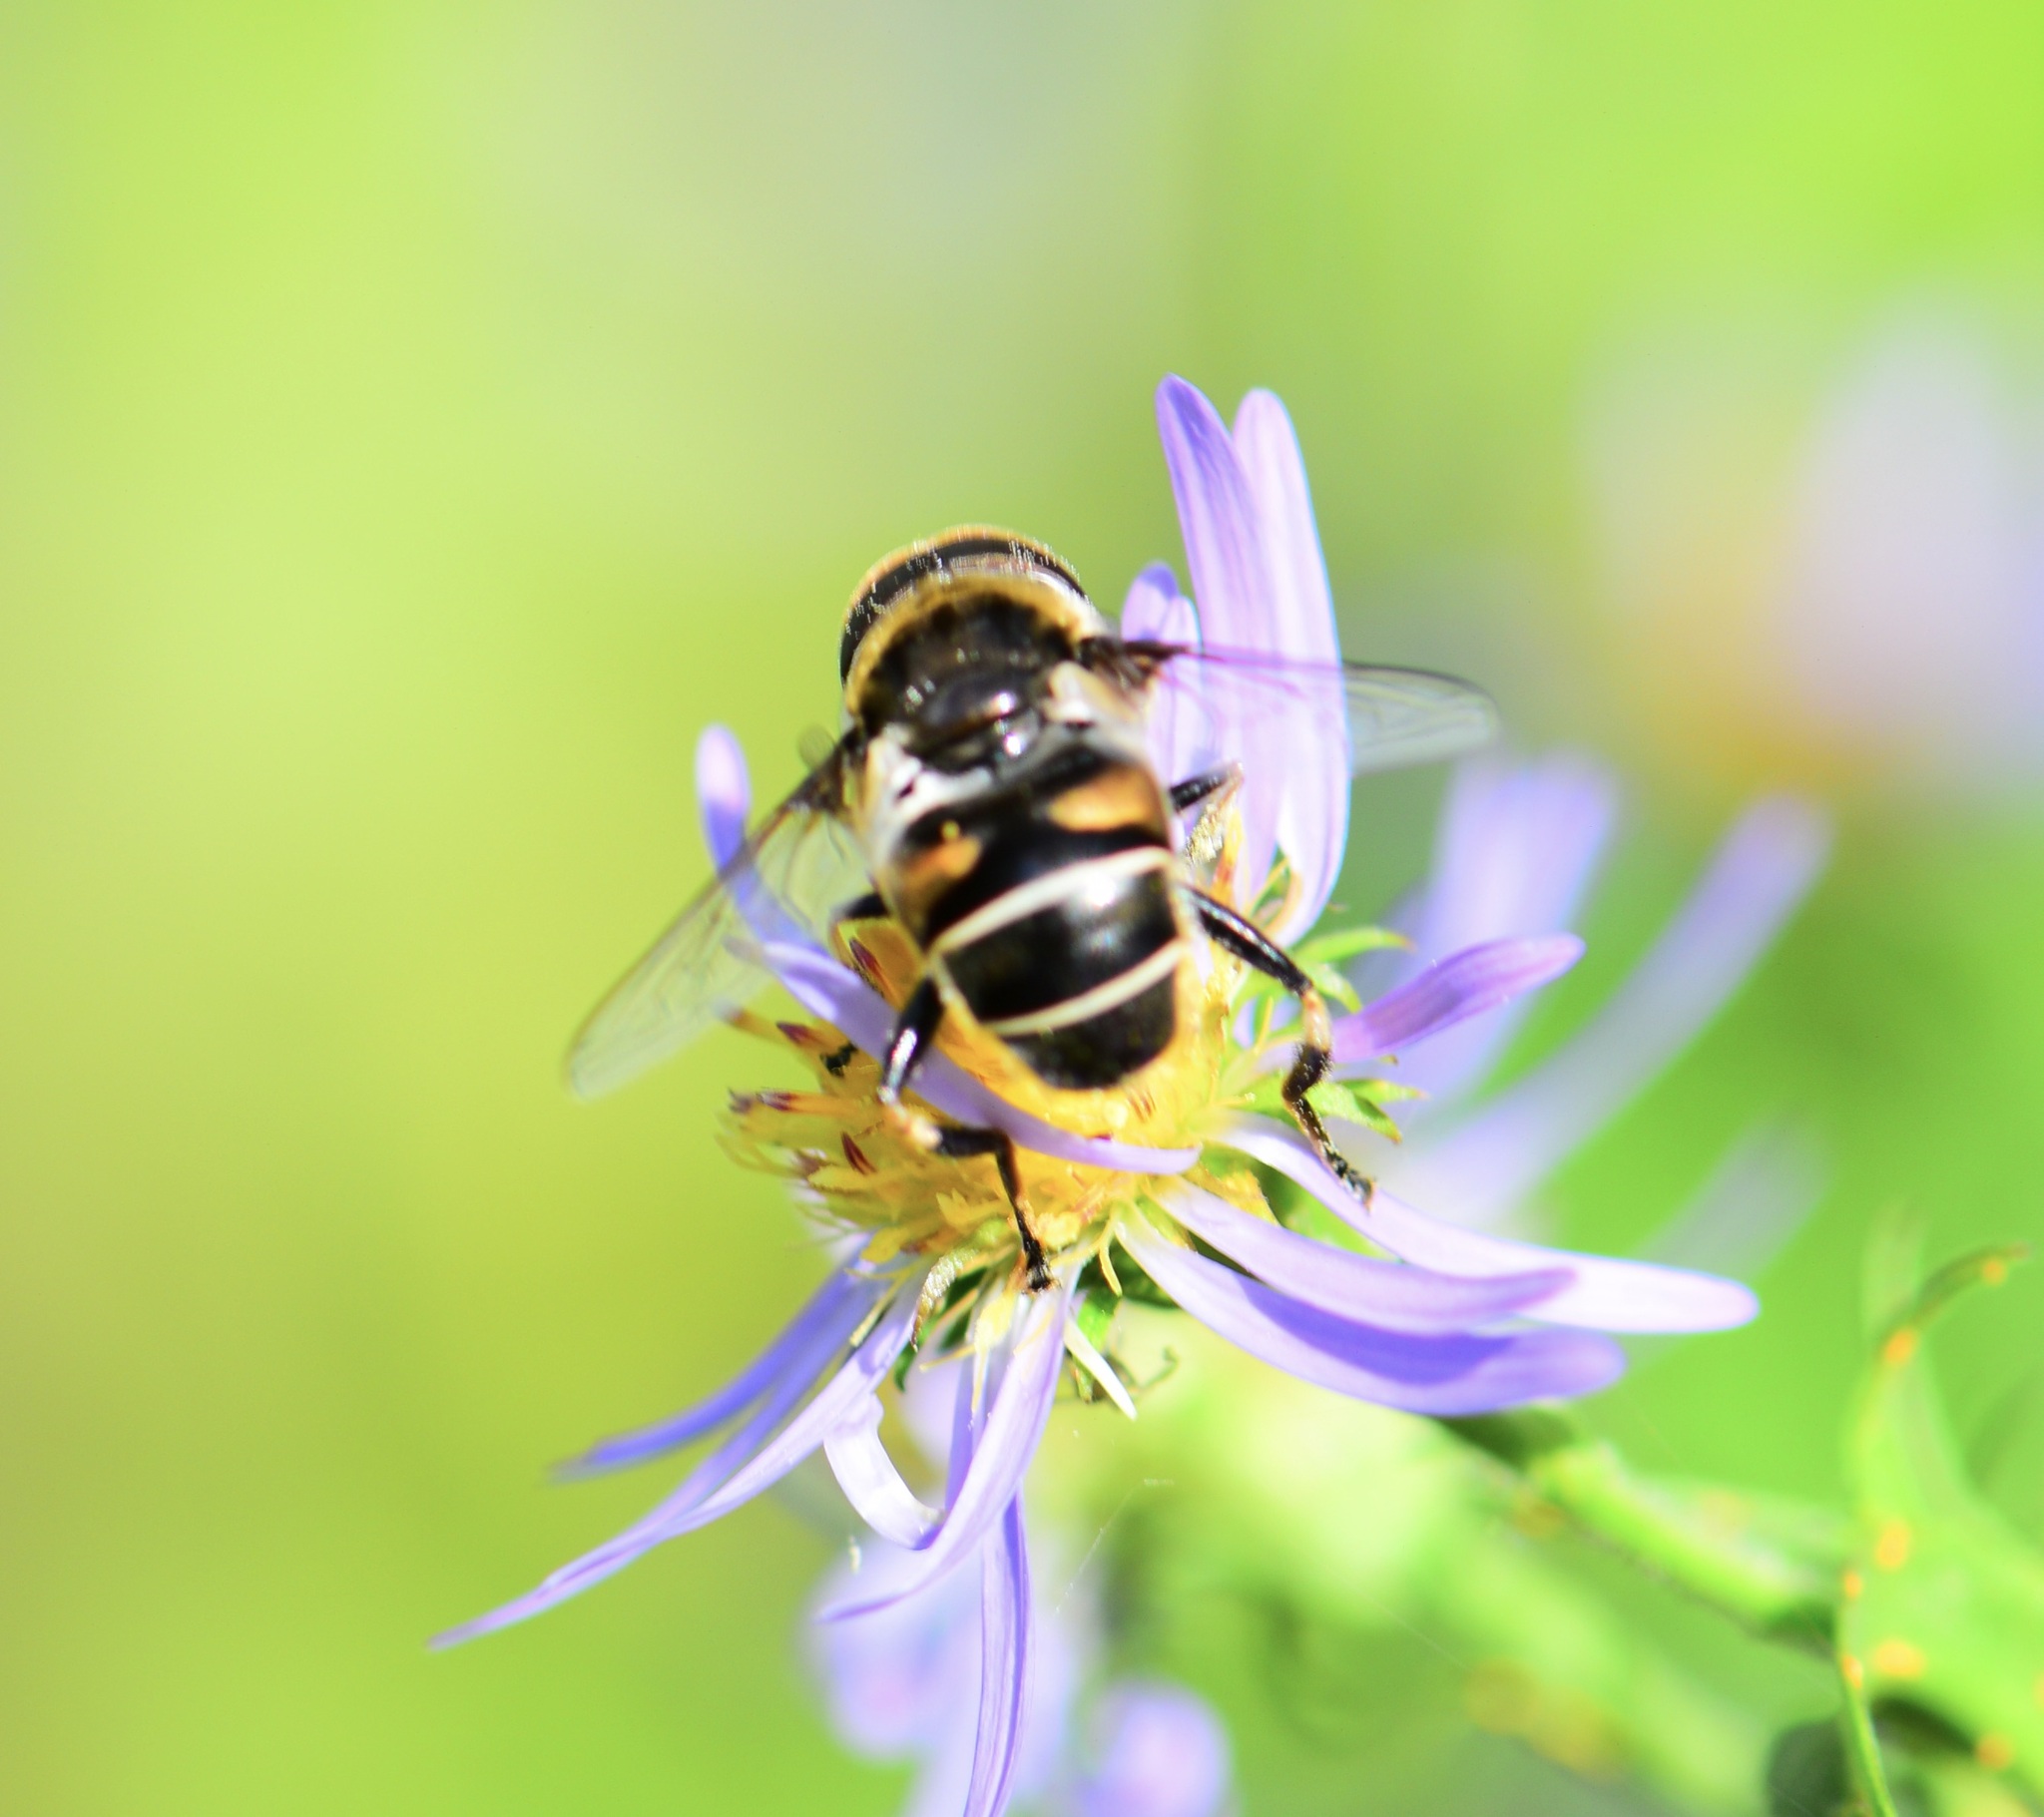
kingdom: Animalia
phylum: Arthropoda
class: Insecta
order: Diptera
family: Syrphidae
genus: Eristalis
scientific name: Eristalis dimidiata
